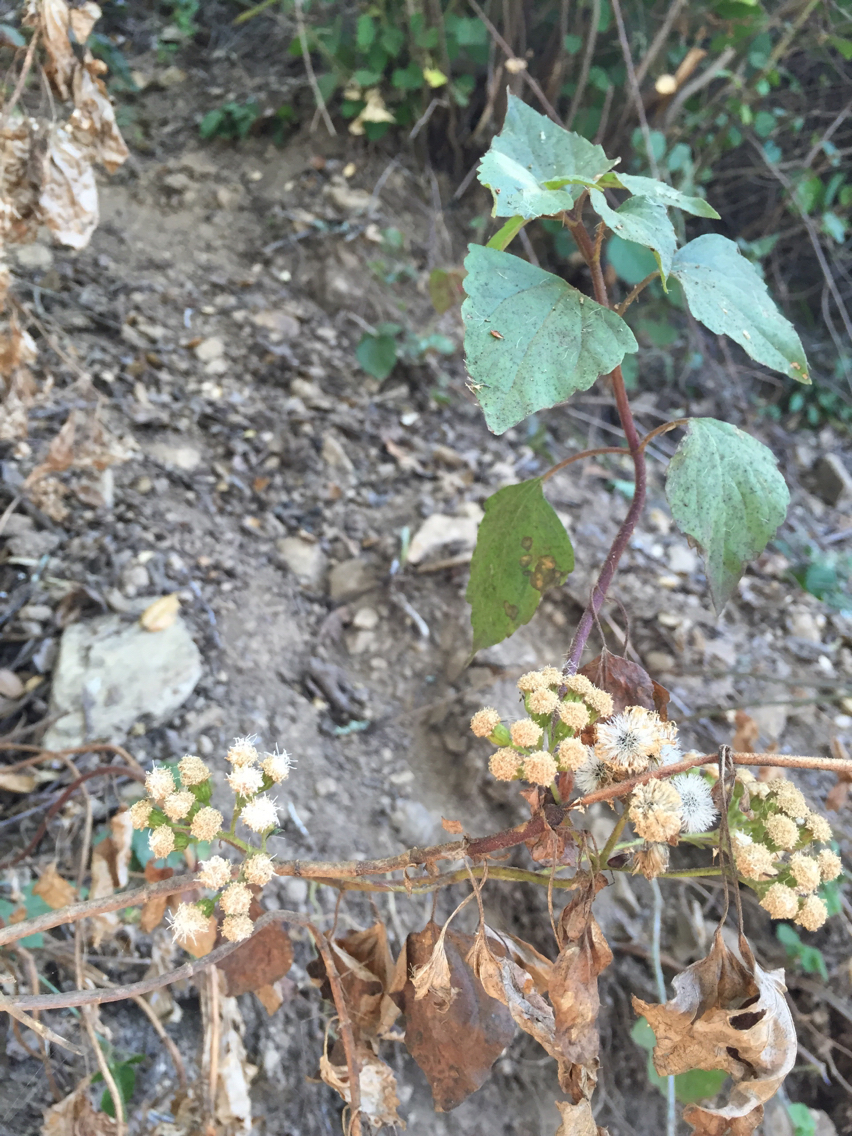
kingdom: Plantae
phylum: Tracheophyta
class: Magnoliopsida
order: Asterales
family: Asteraceae
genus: Ageratina
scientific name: Ageratina adenophora
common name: Sticky snakeroot
